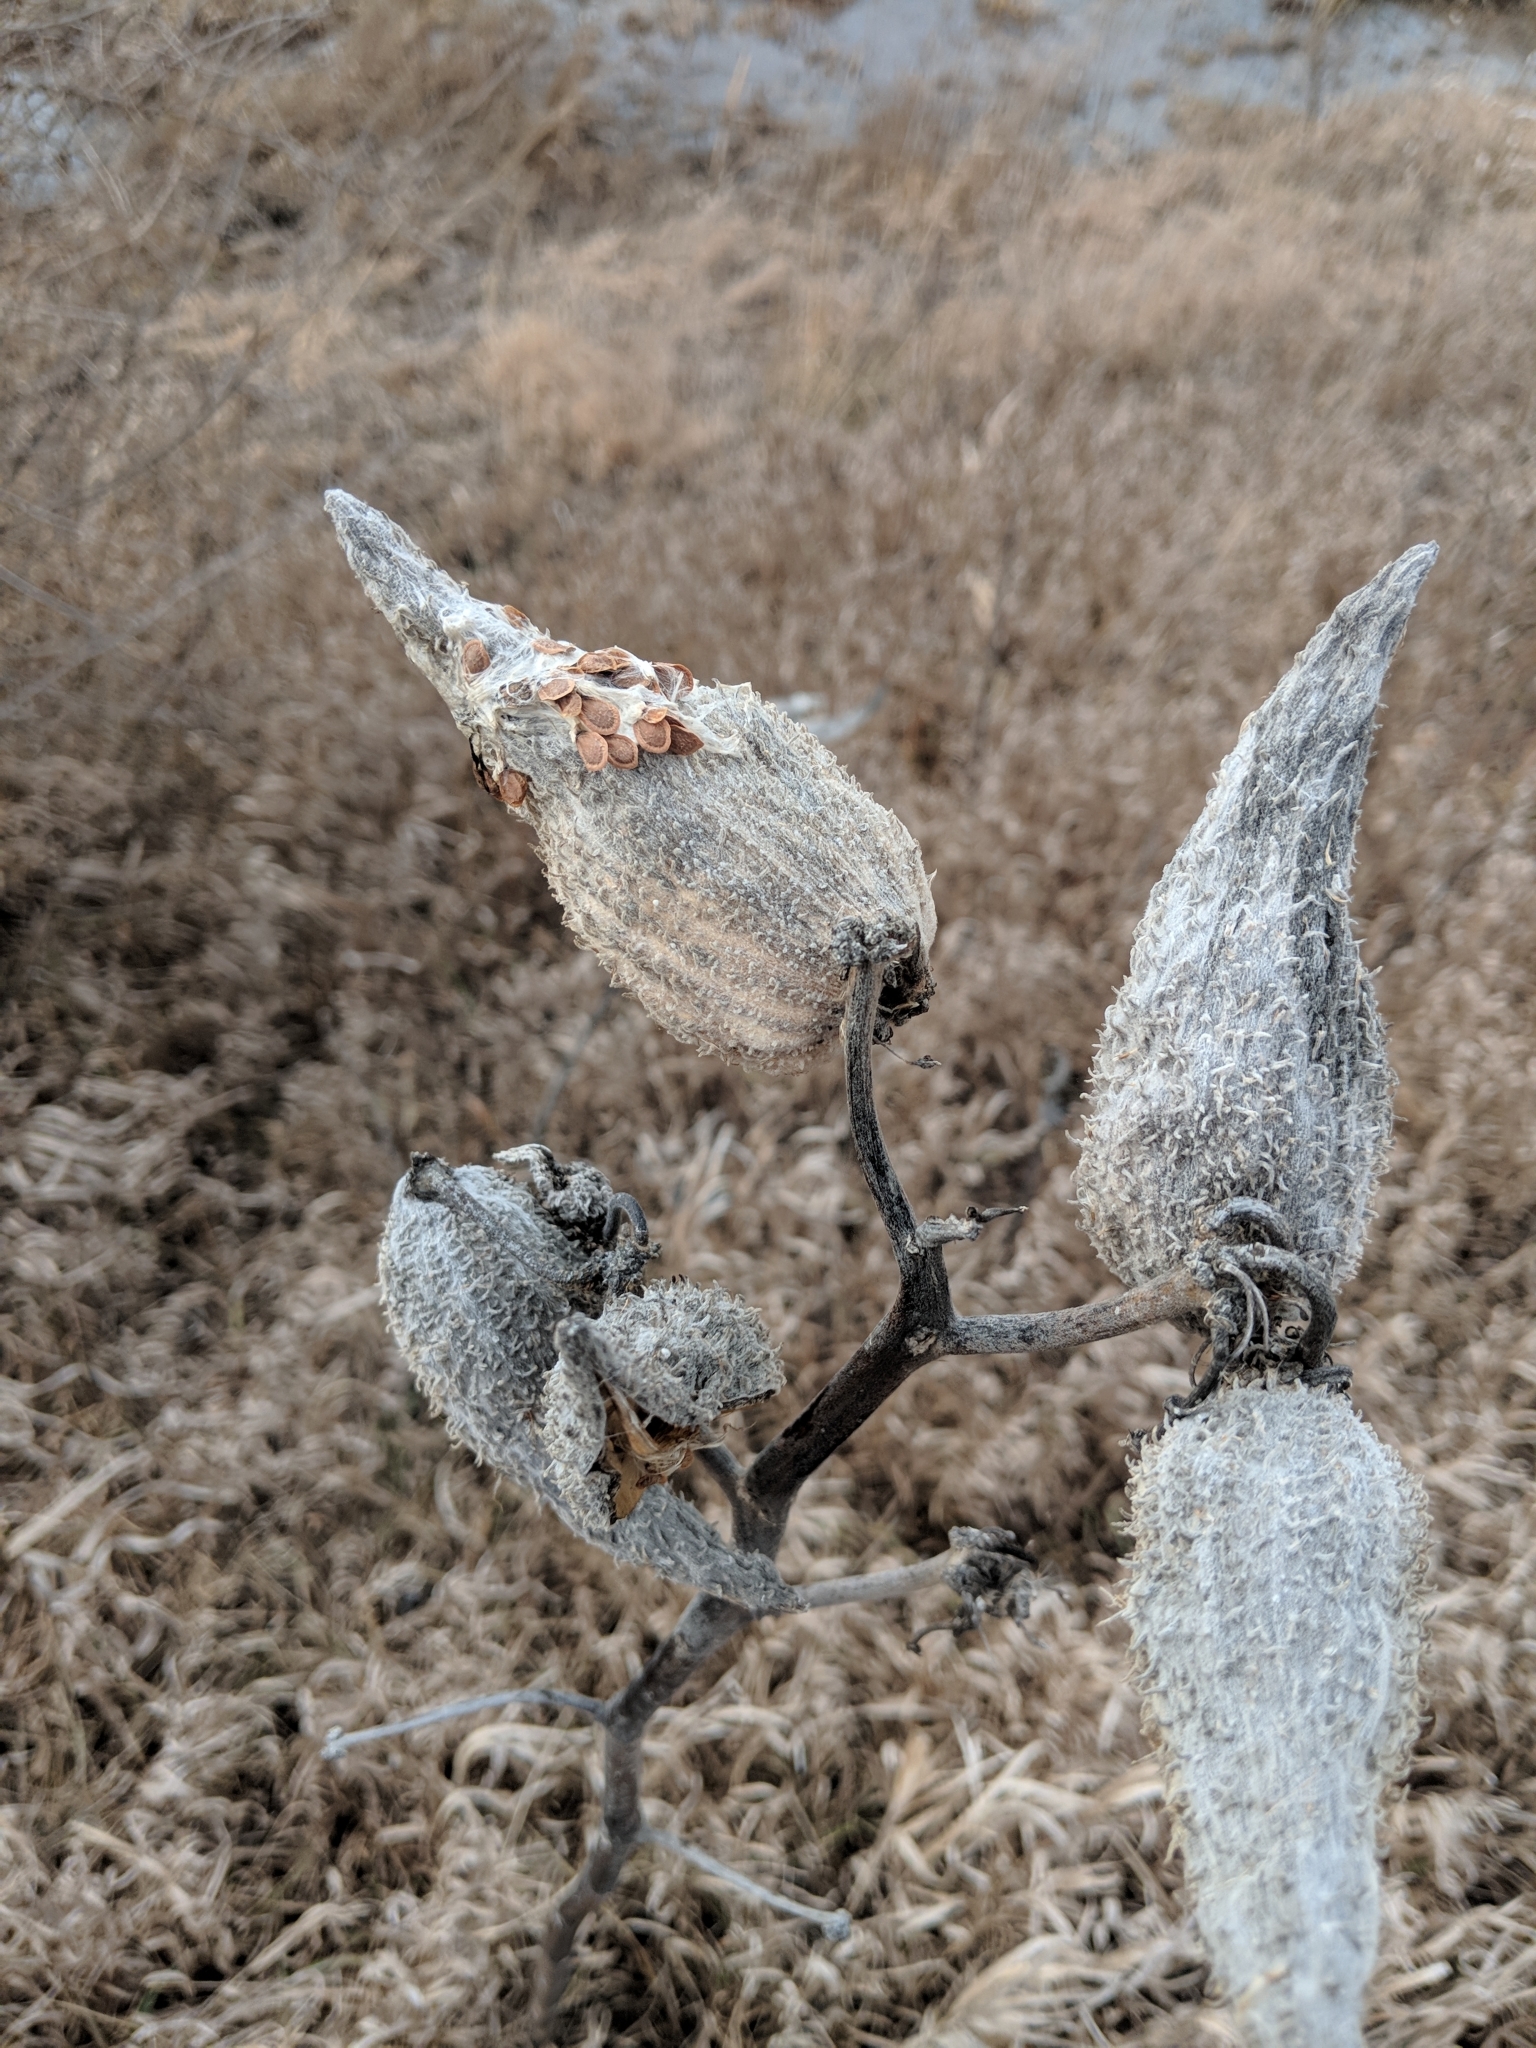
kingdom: Plantae
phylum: Tracheophyta
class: Magnoliopsida
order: Gentianales
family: Apocynaceae
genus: Asclepias
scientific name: Asclepias syriaca
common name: Common milkweed
